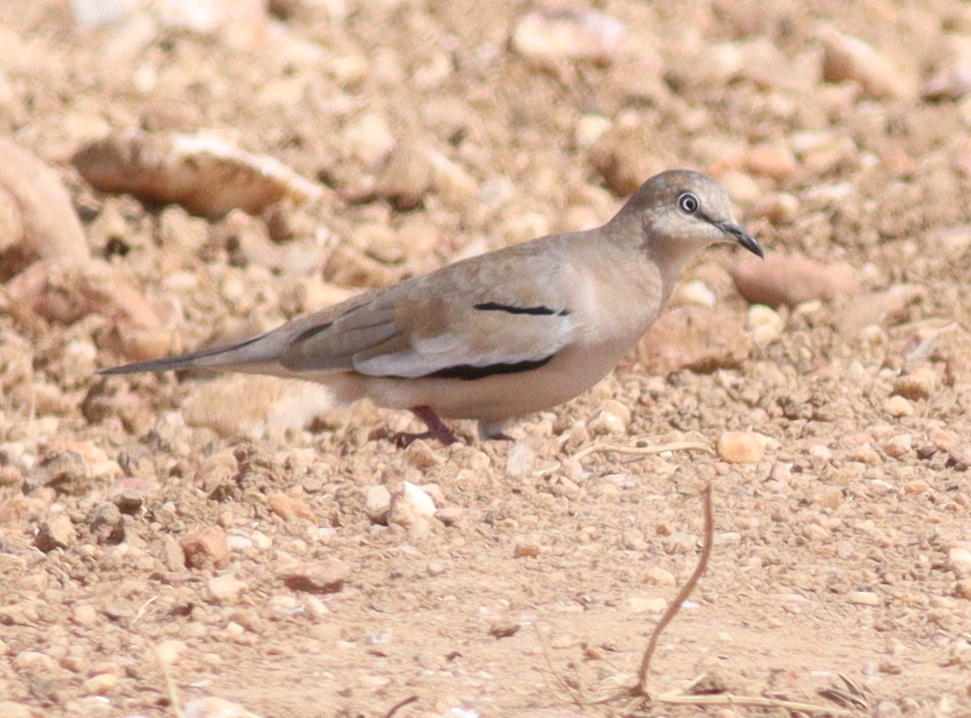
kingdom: Animalia
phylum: Chordata
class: Aves
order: Columbiformes
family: Columbidae
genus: Columbina
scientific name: Columbina picui
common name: Picui ground dove
